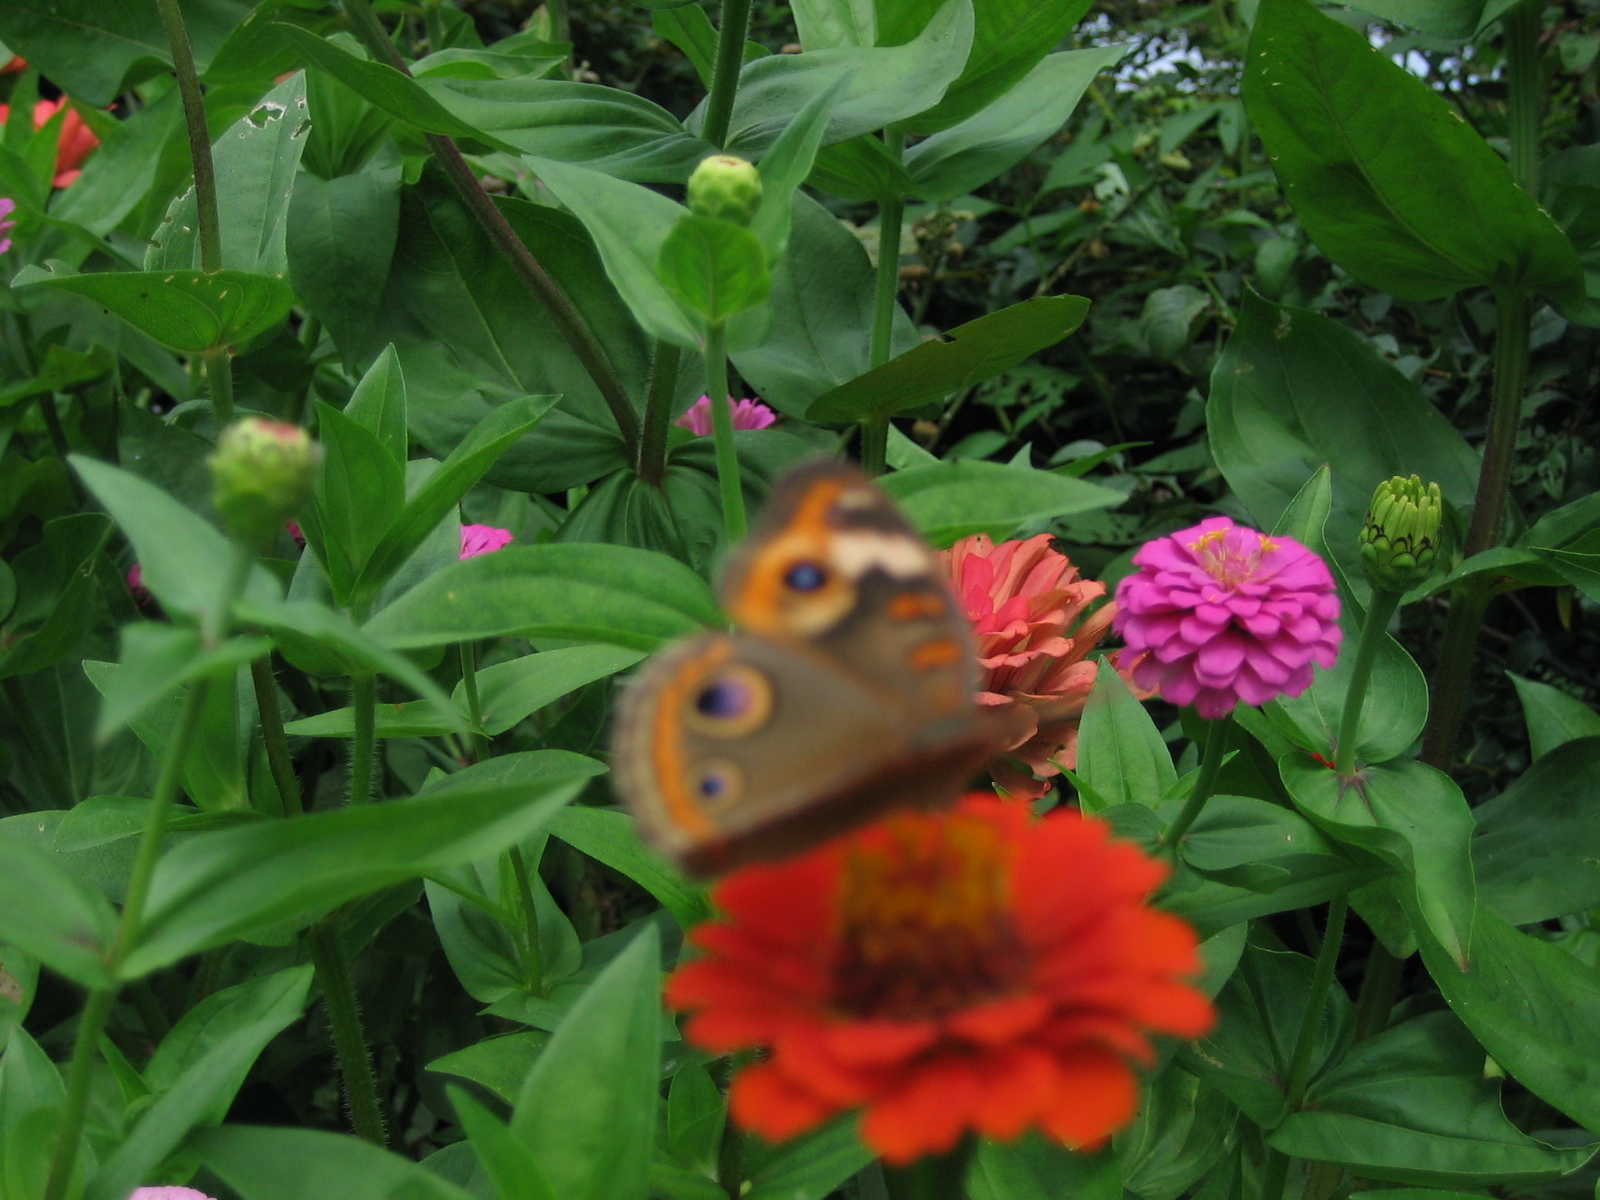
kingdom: Animalia
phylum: Arthropoda
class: Insecta
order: Lepidoptera
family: Nymphalidae
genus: Junonia
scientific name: Junonia coenia
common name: Common buckeye
